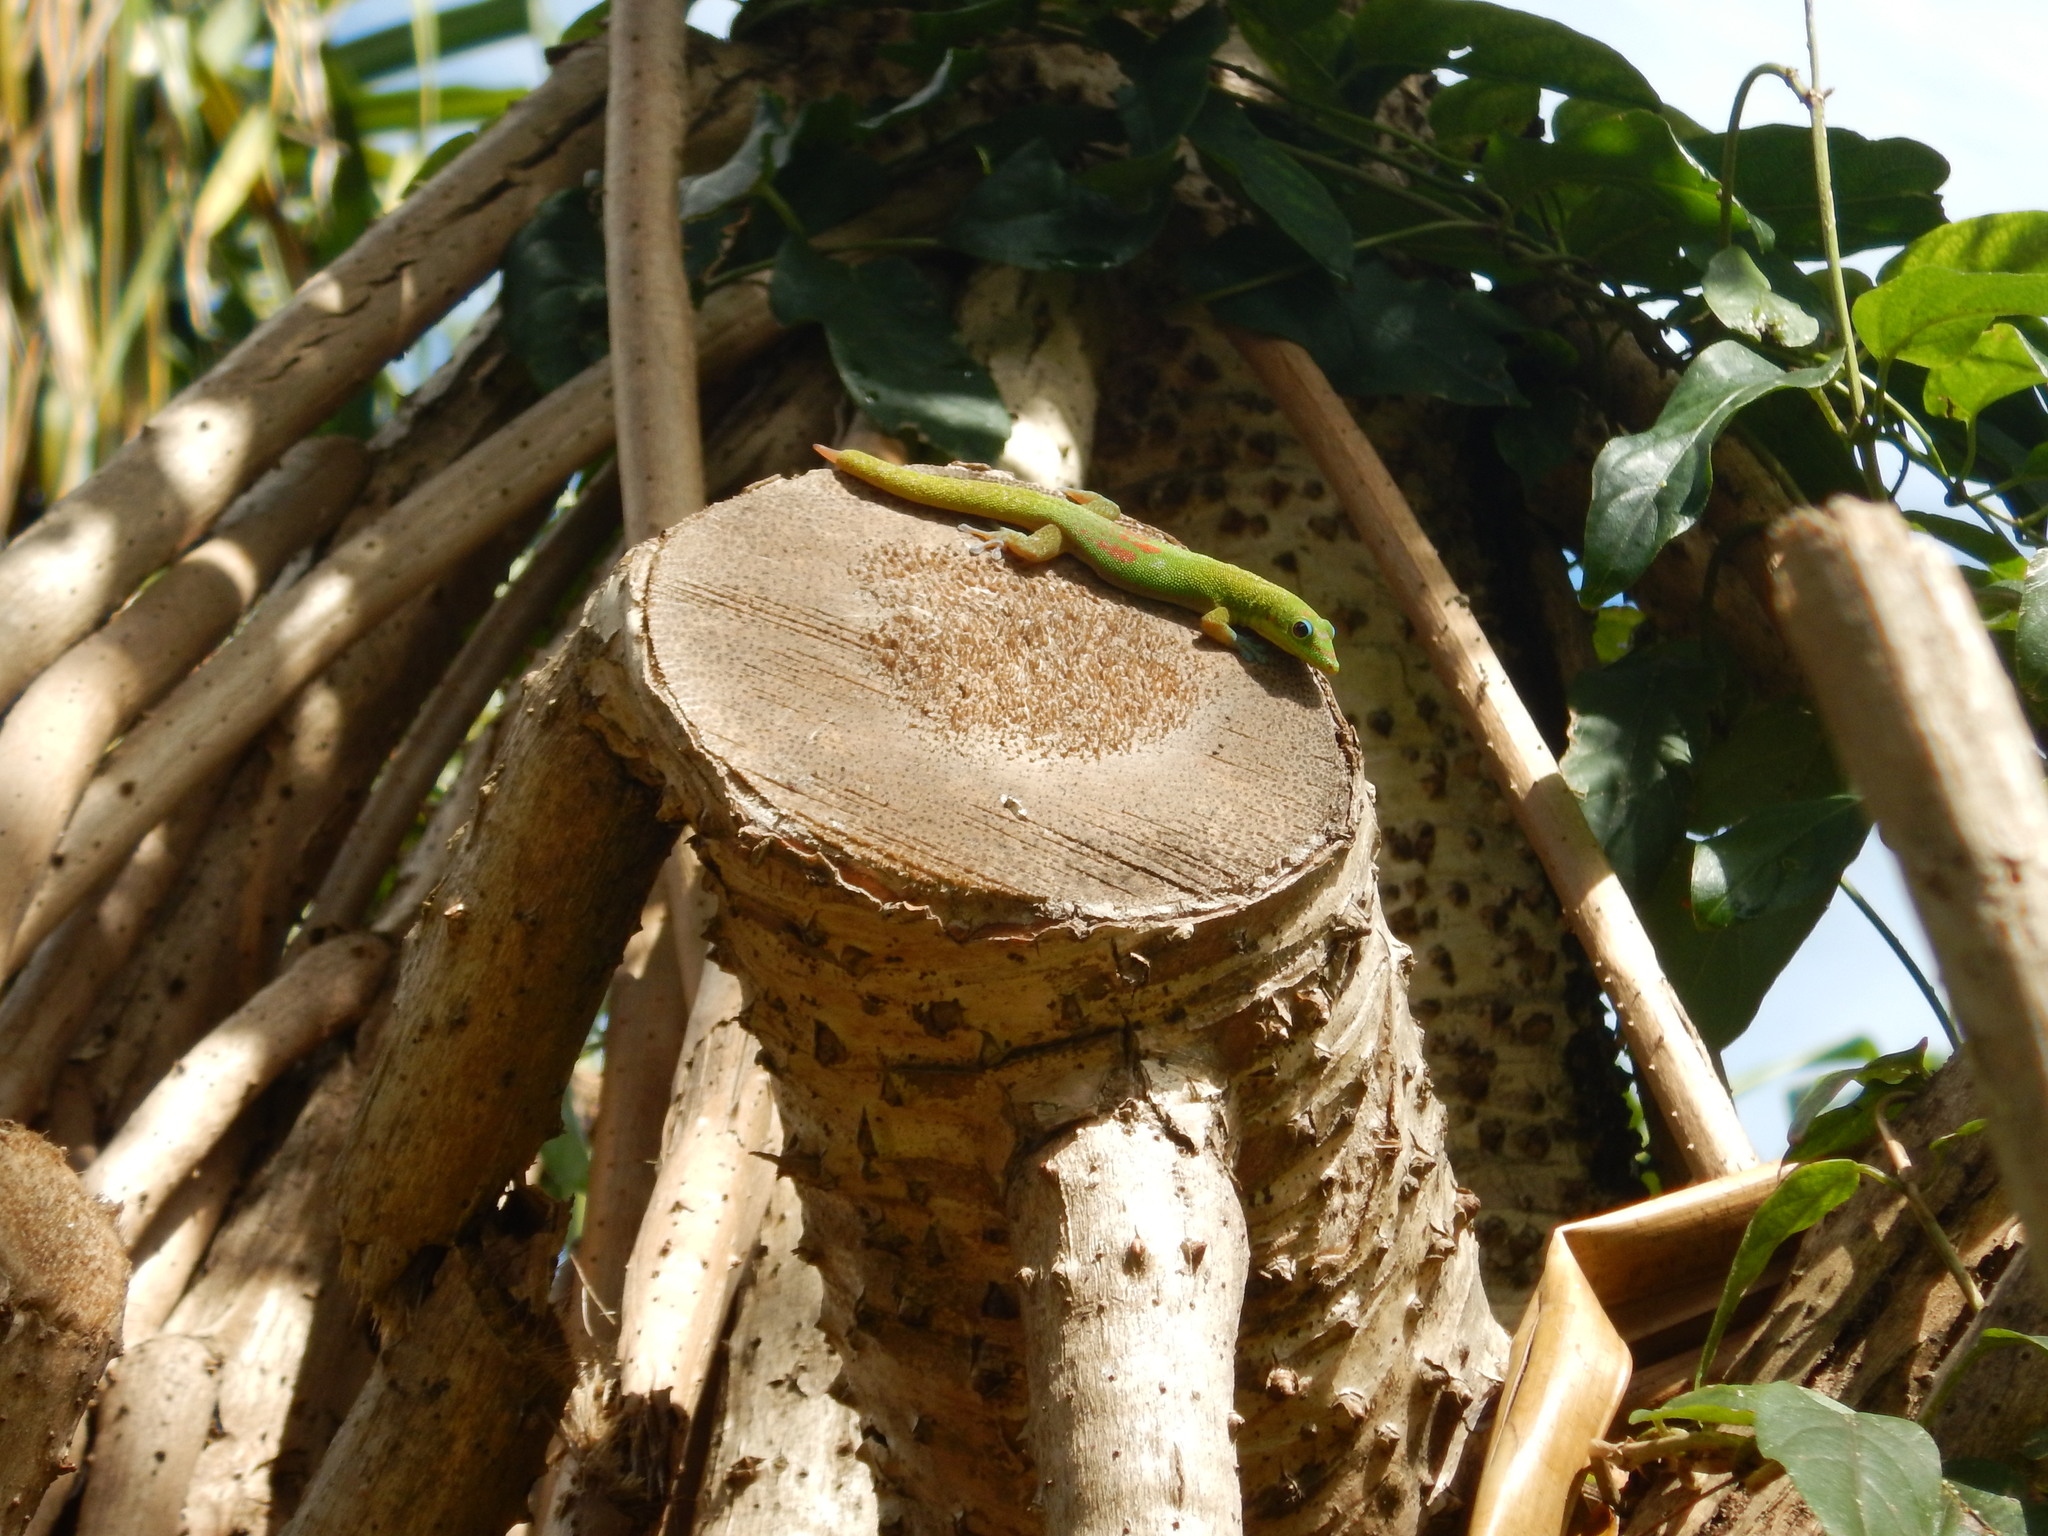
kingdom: Animalia
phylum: Chordata
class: Squamata
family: Gekkonidae
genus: Phelsuma
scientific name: Phelsuma laticauda
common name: Gold dust day gecko
